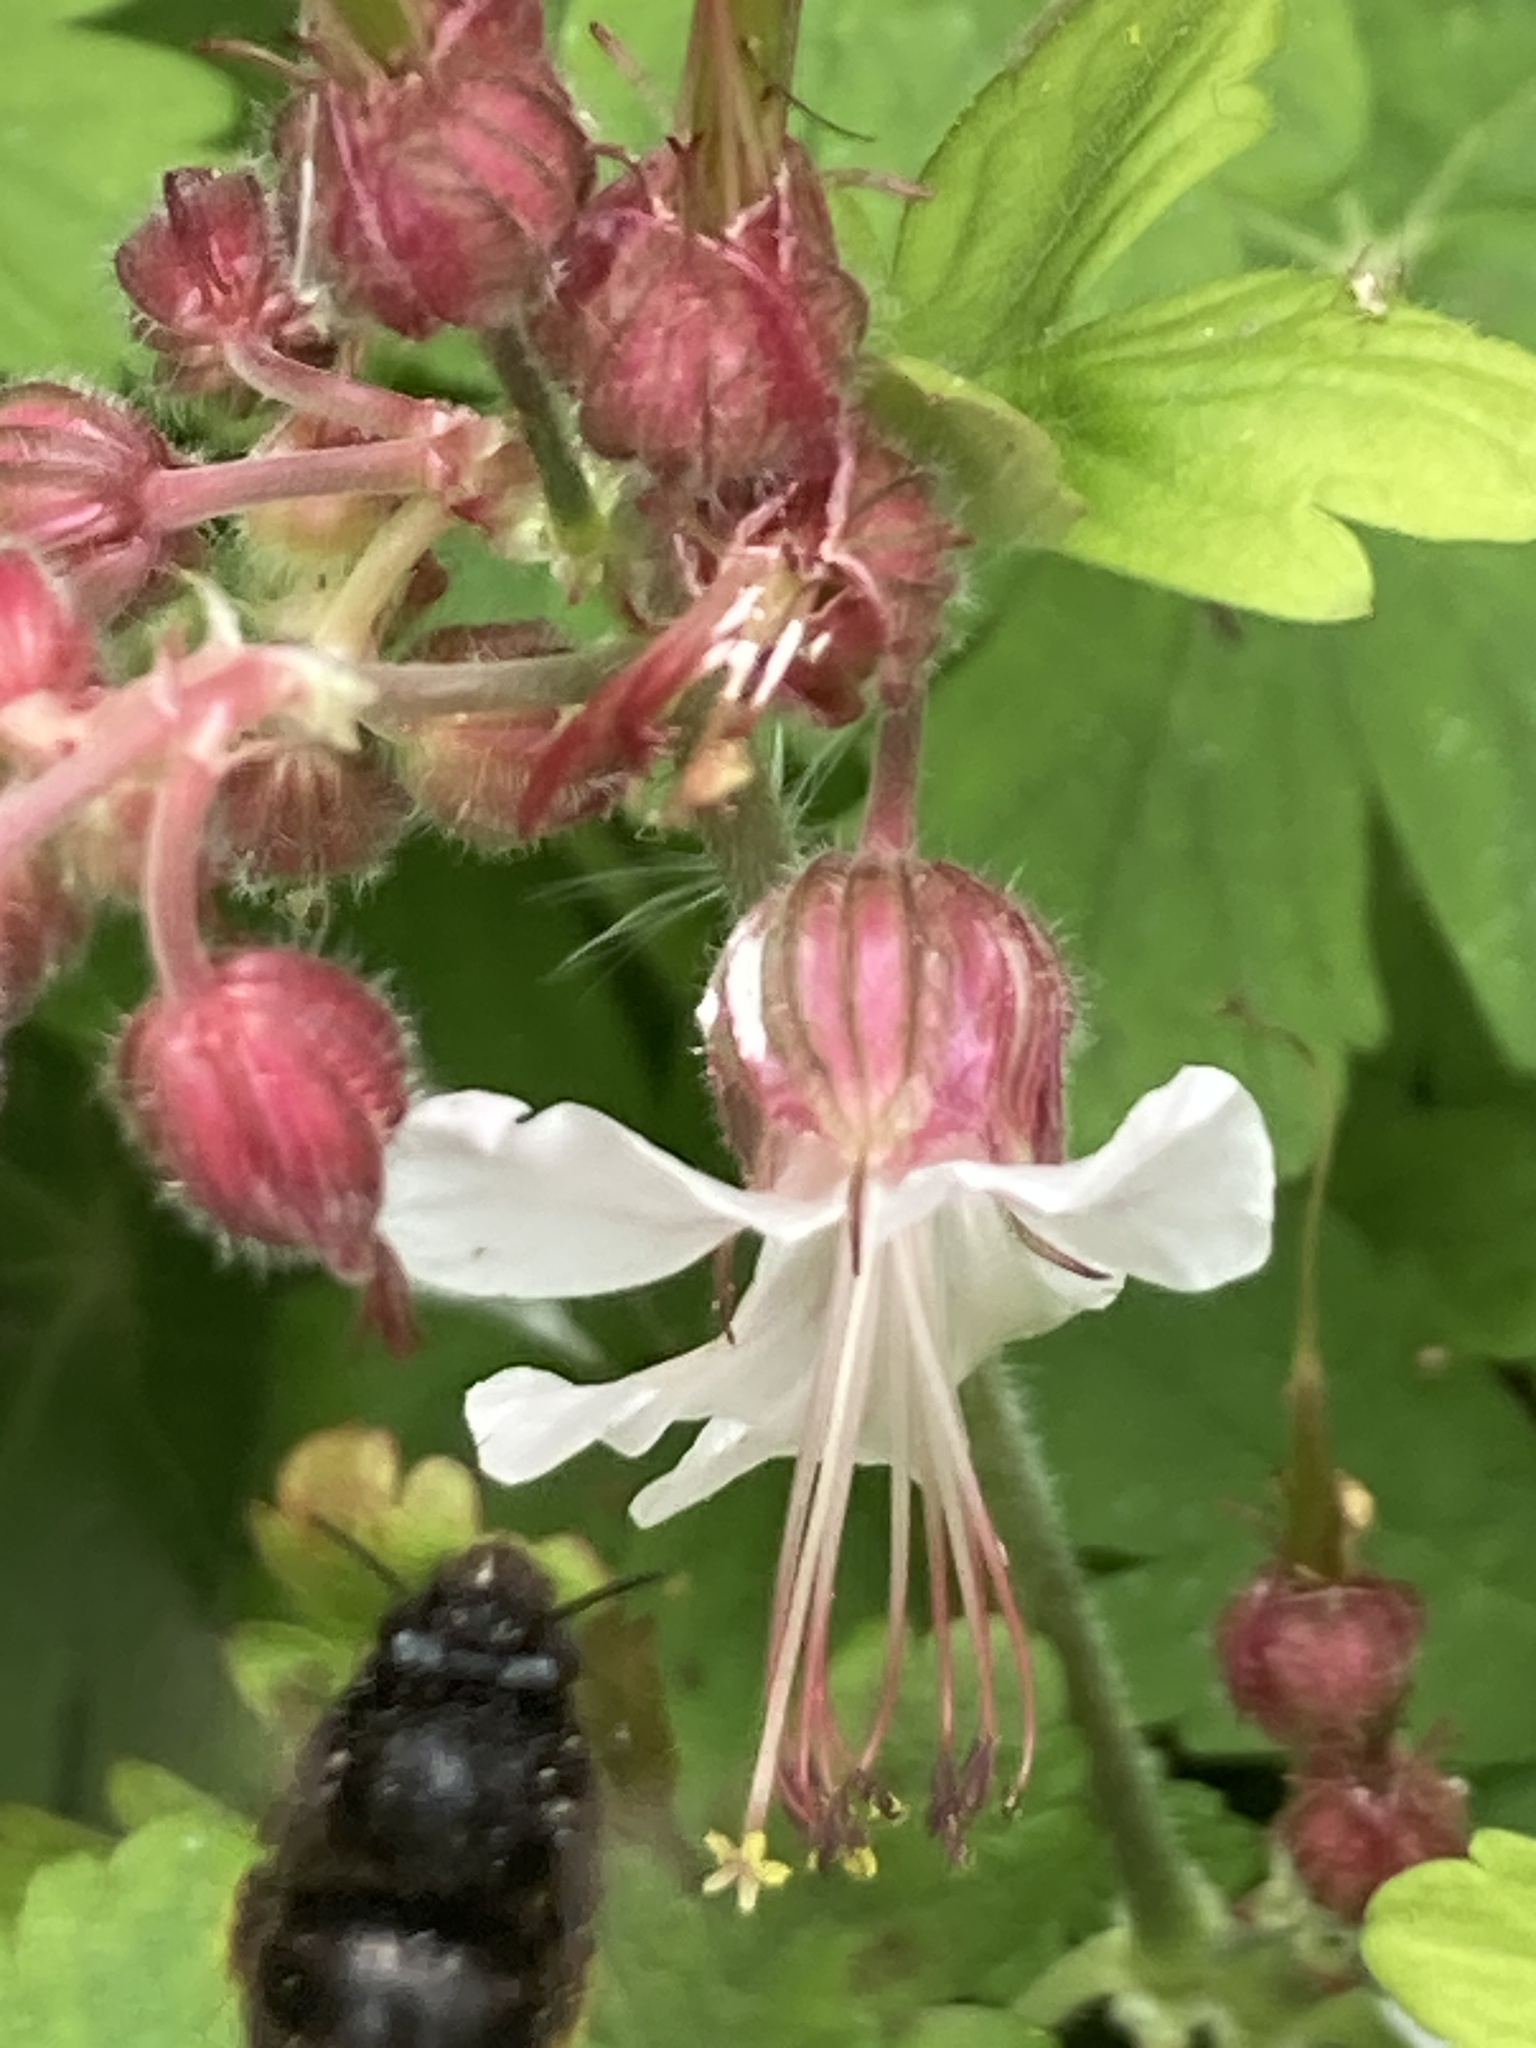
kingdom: Animalia
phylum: Arthropoda
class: Insecta
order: Hymenoptera
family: Apidae
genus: Anthophora
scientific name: Anthophora plumipes
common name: Hairy-footed flower bee
